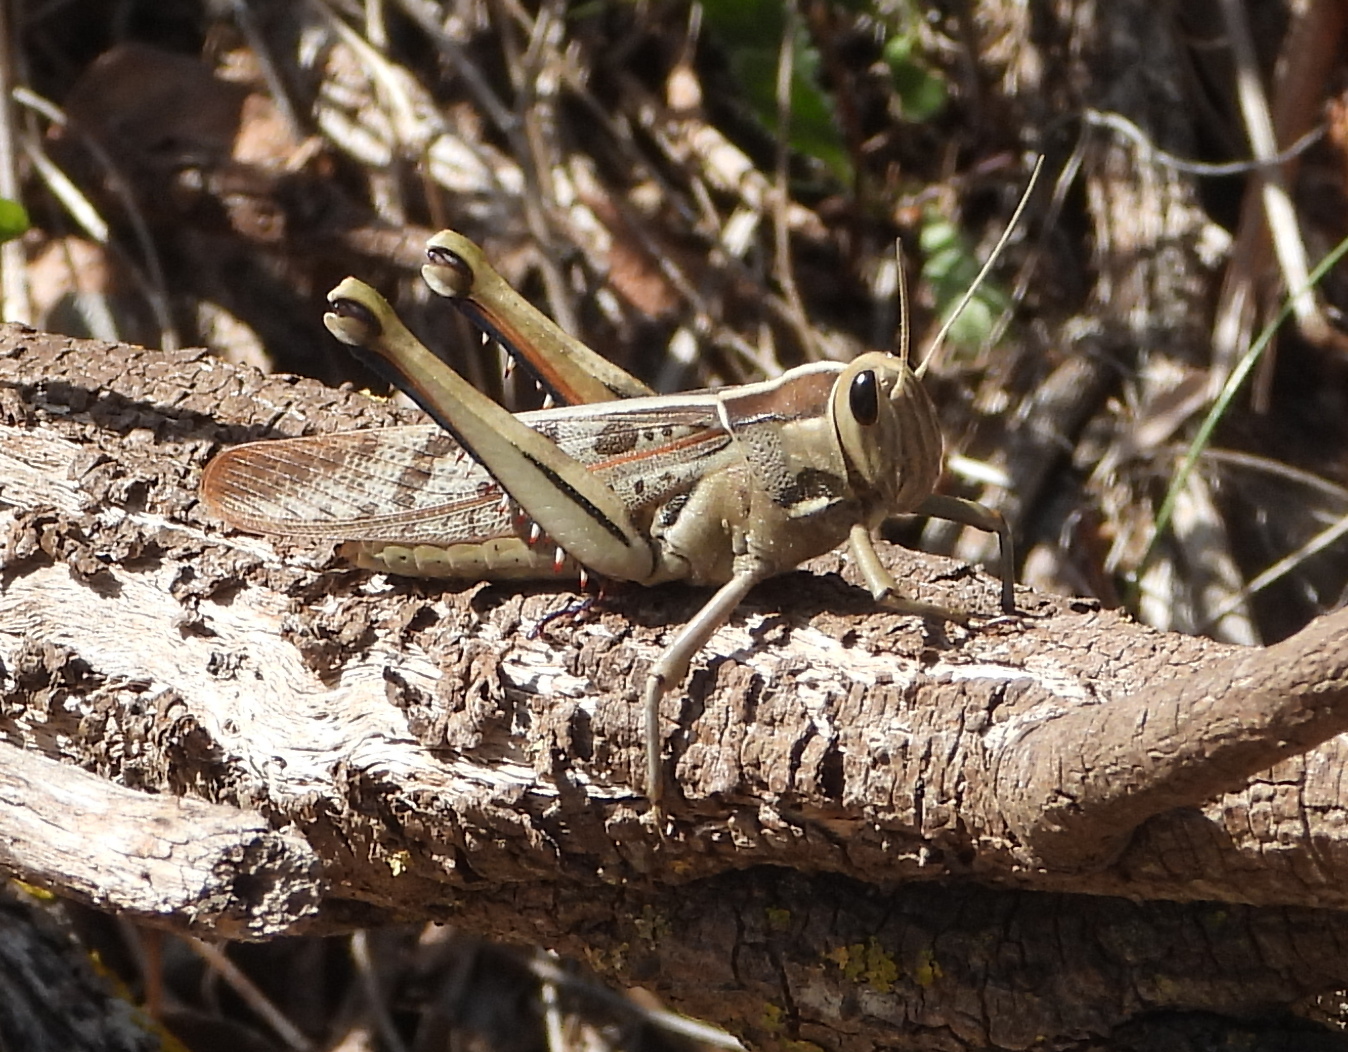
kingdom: Animalia
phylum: Arthropoda
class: Insecta
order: Orthoptera
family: Acrididae
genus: Acanthacris
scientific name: Acanthacris ruficornis
